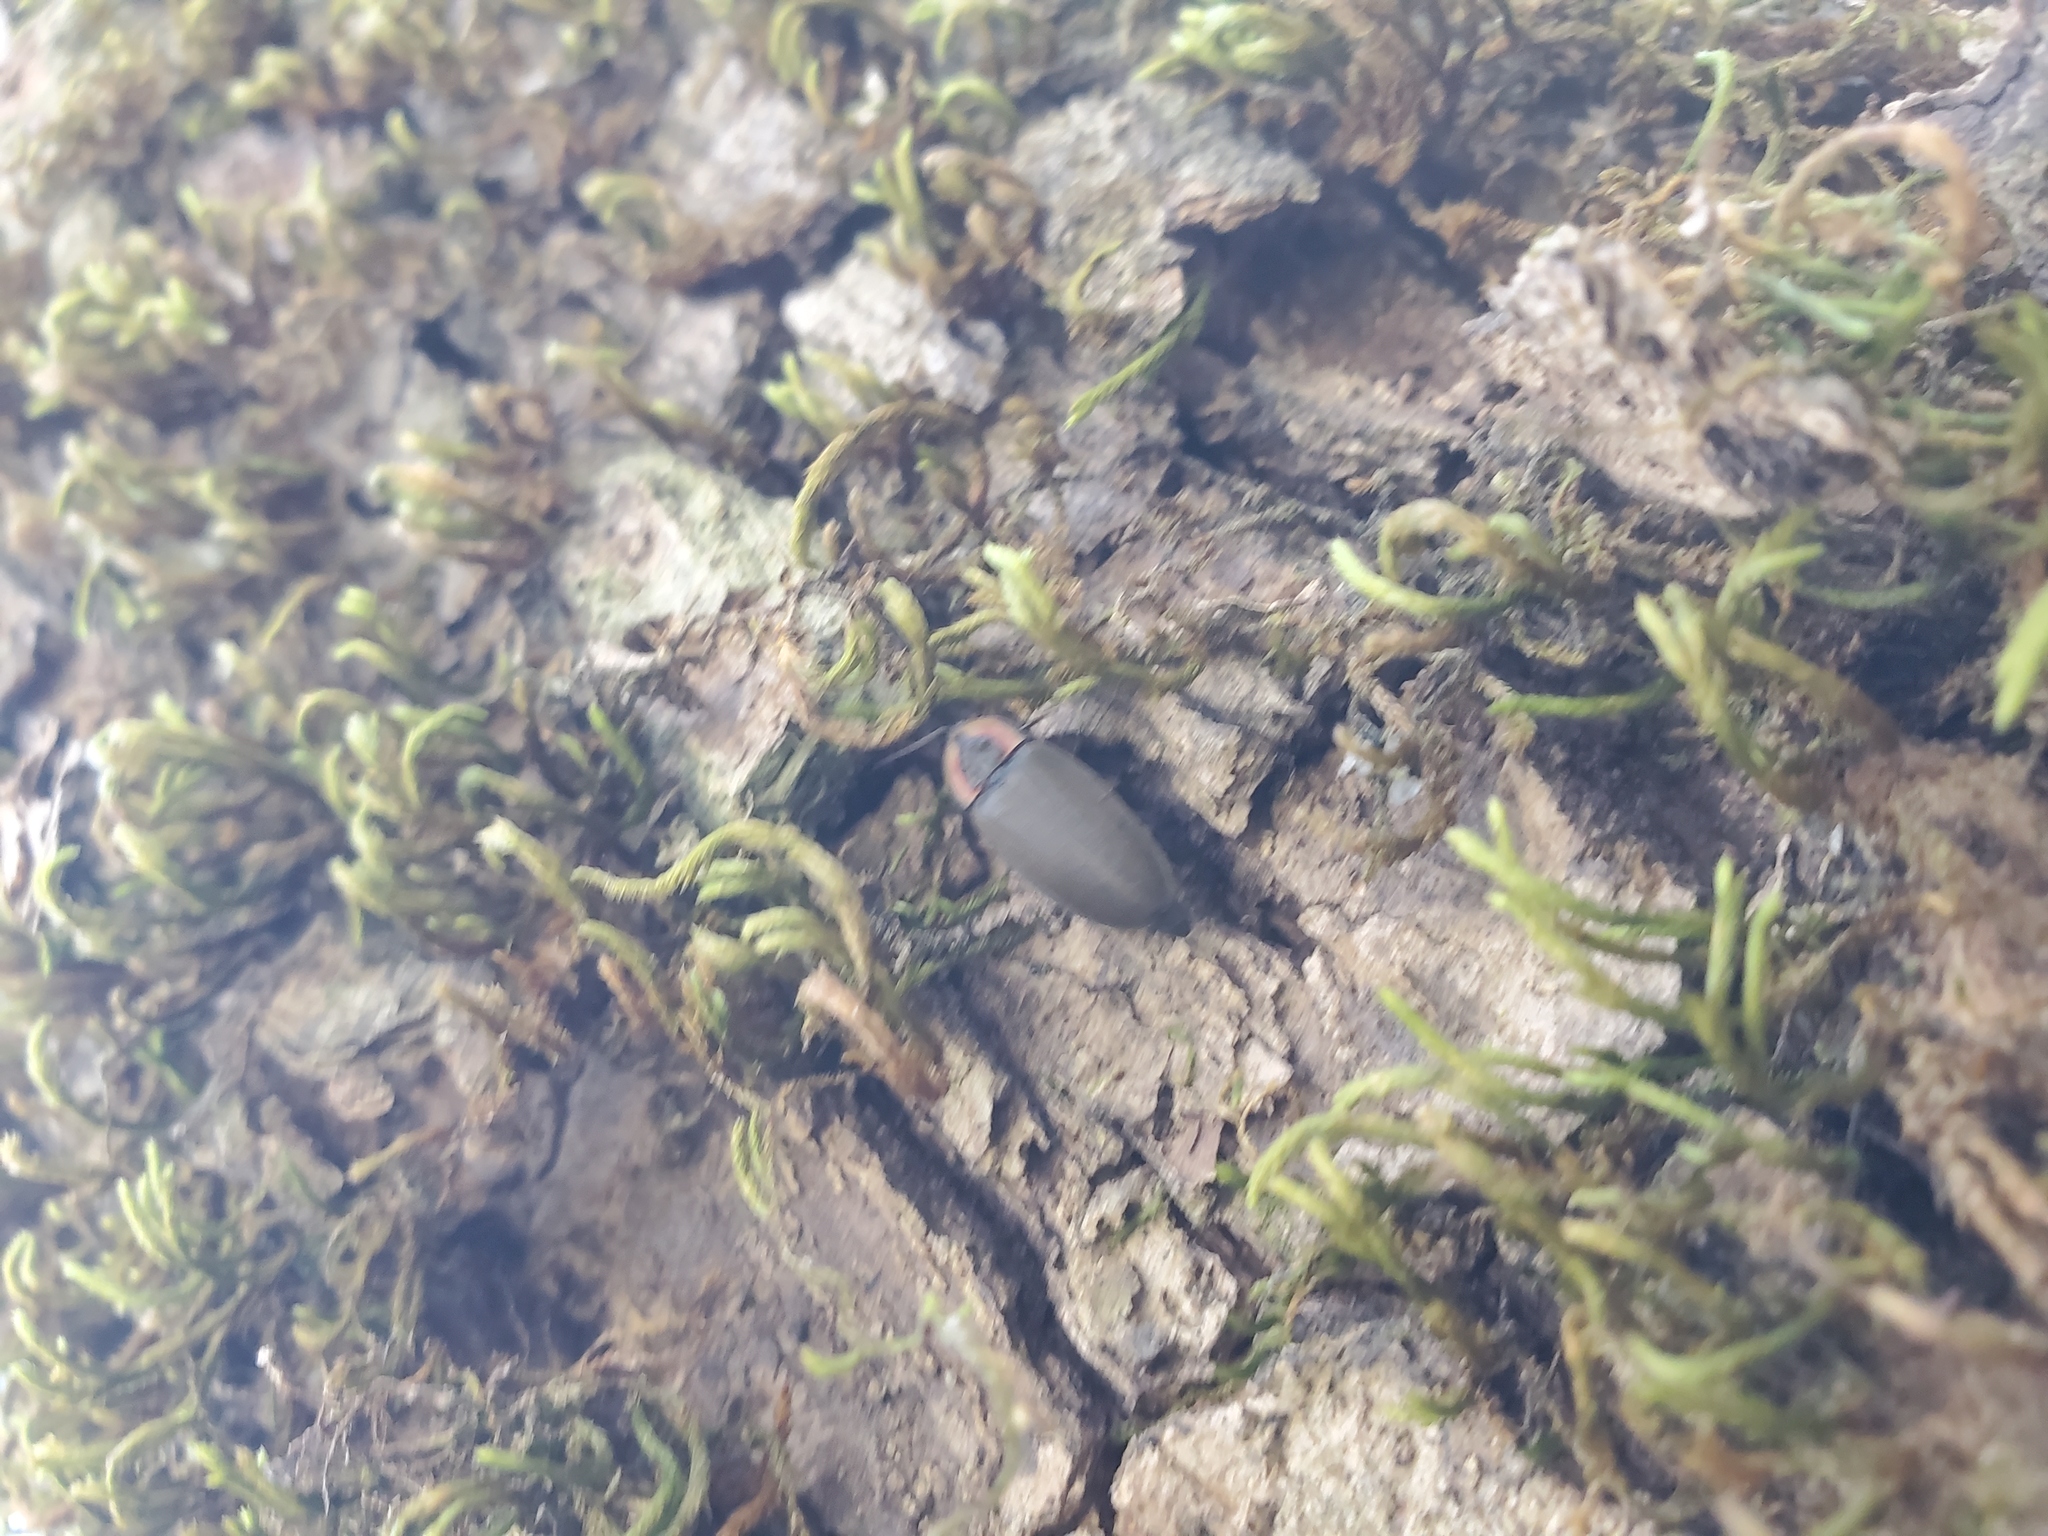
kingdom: Animalia
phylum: Arthropoda
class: Insecta
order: Coleoptera
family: Lampyridae
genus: Photinus
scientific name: Photinus corrusca
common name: Winter firefly
